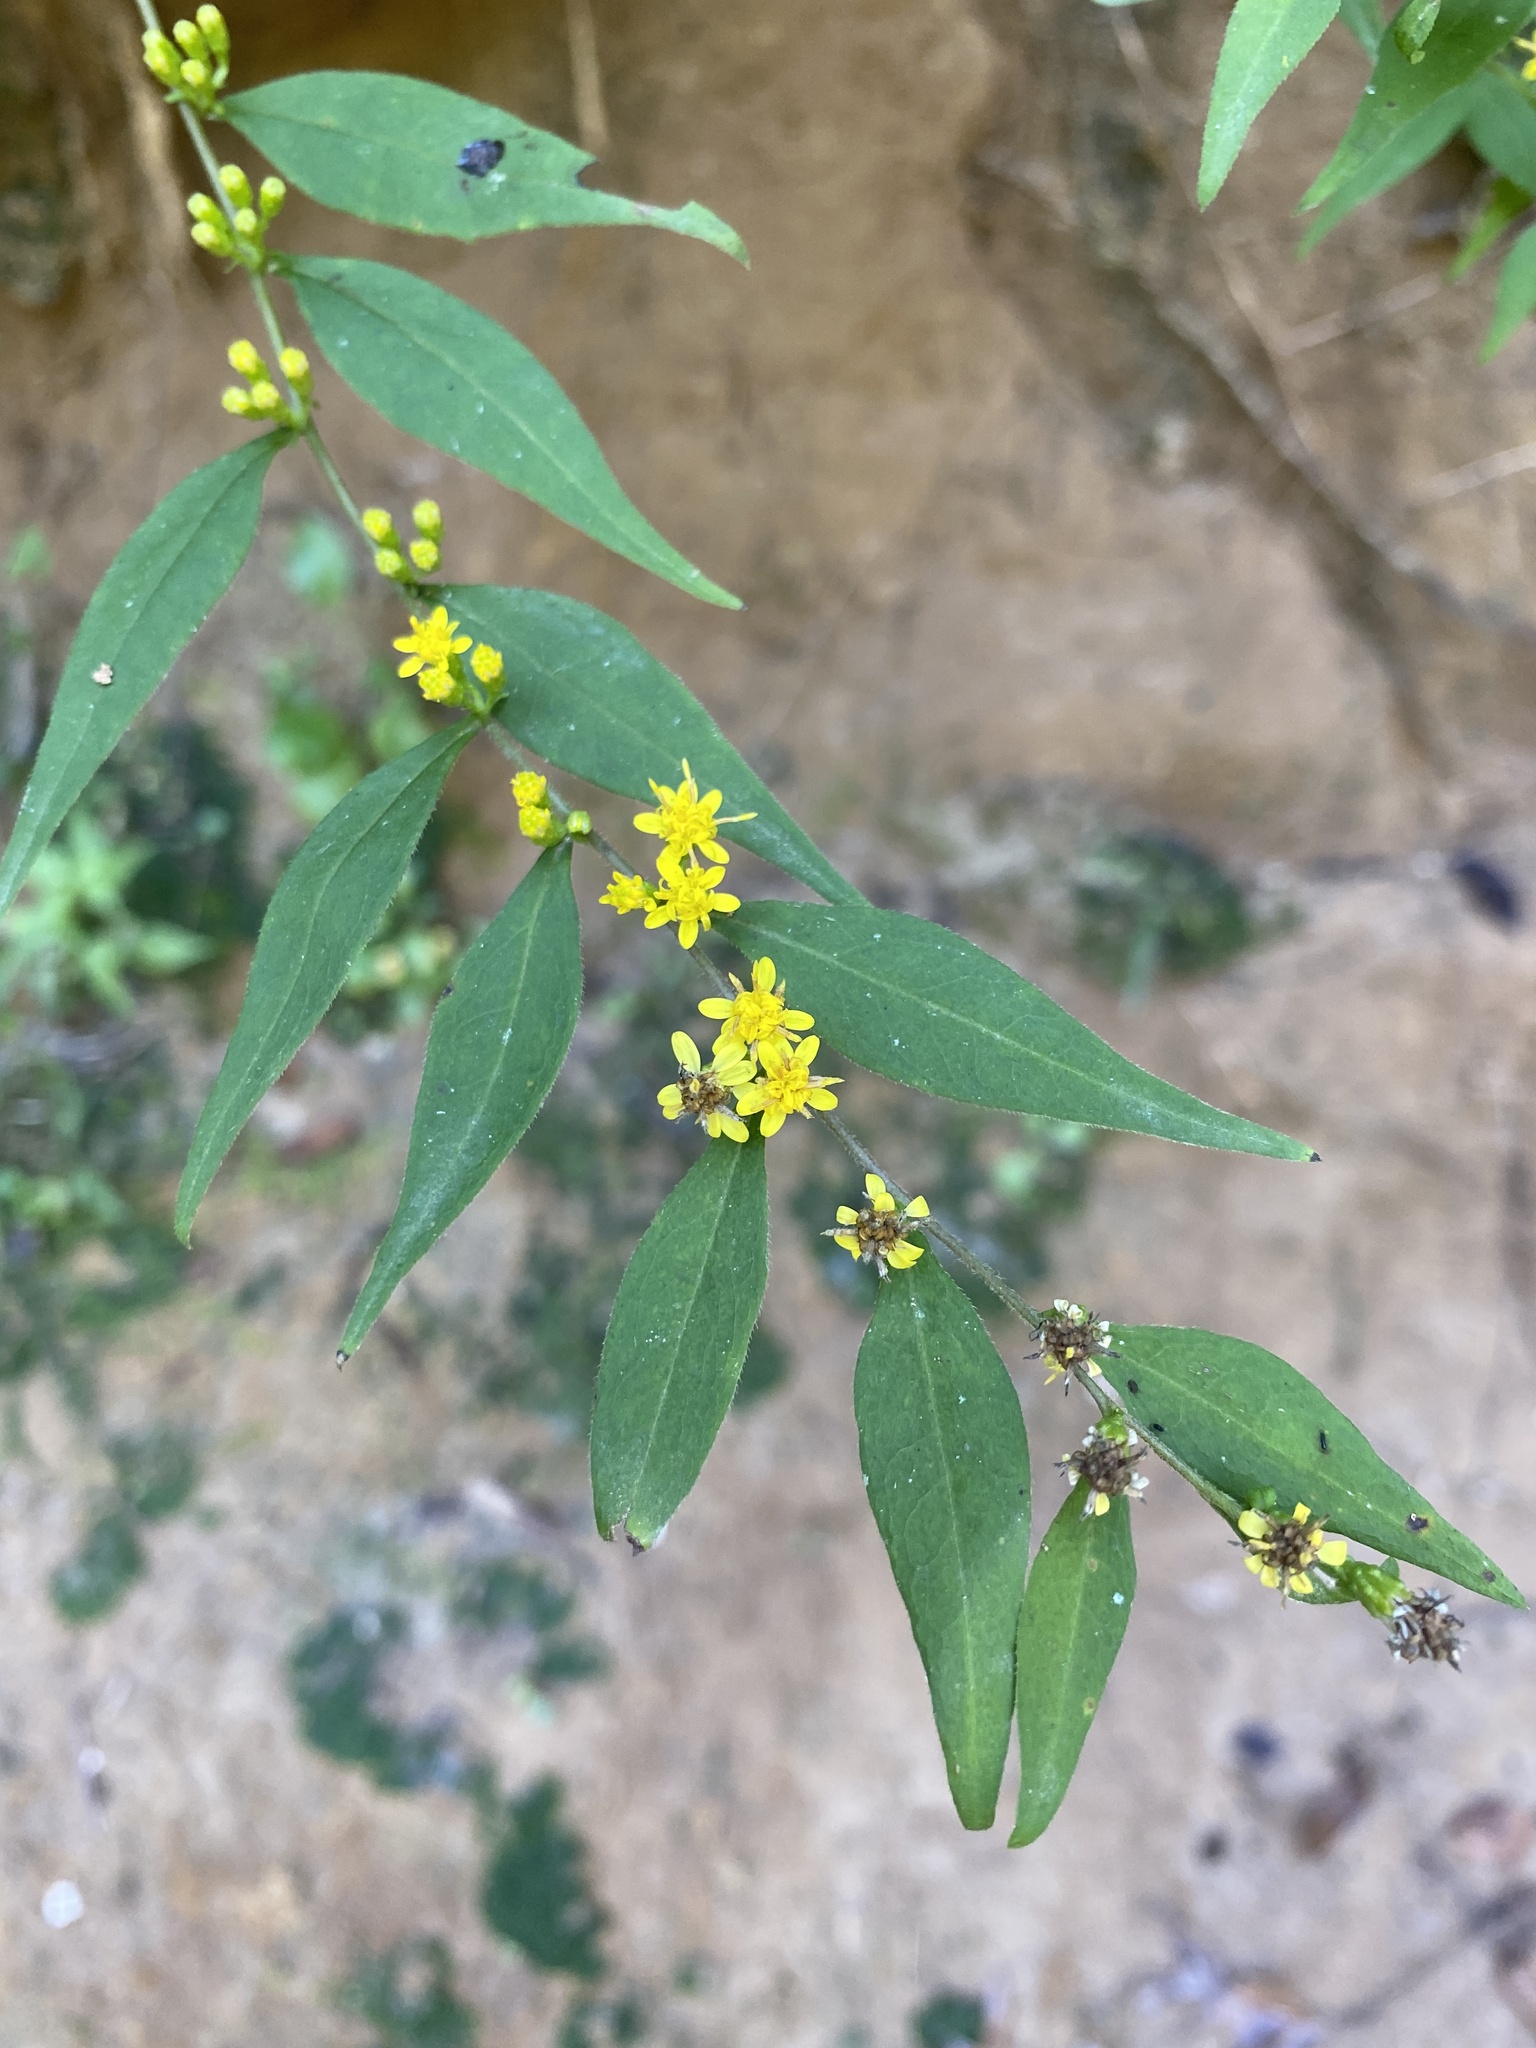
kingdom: Plantae
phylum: Tracheophyta
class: Magnoliopsida
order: Asterales
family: Asteraceae
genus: Solidago
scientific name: Solidago caesia
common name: Woodland goldenrod
